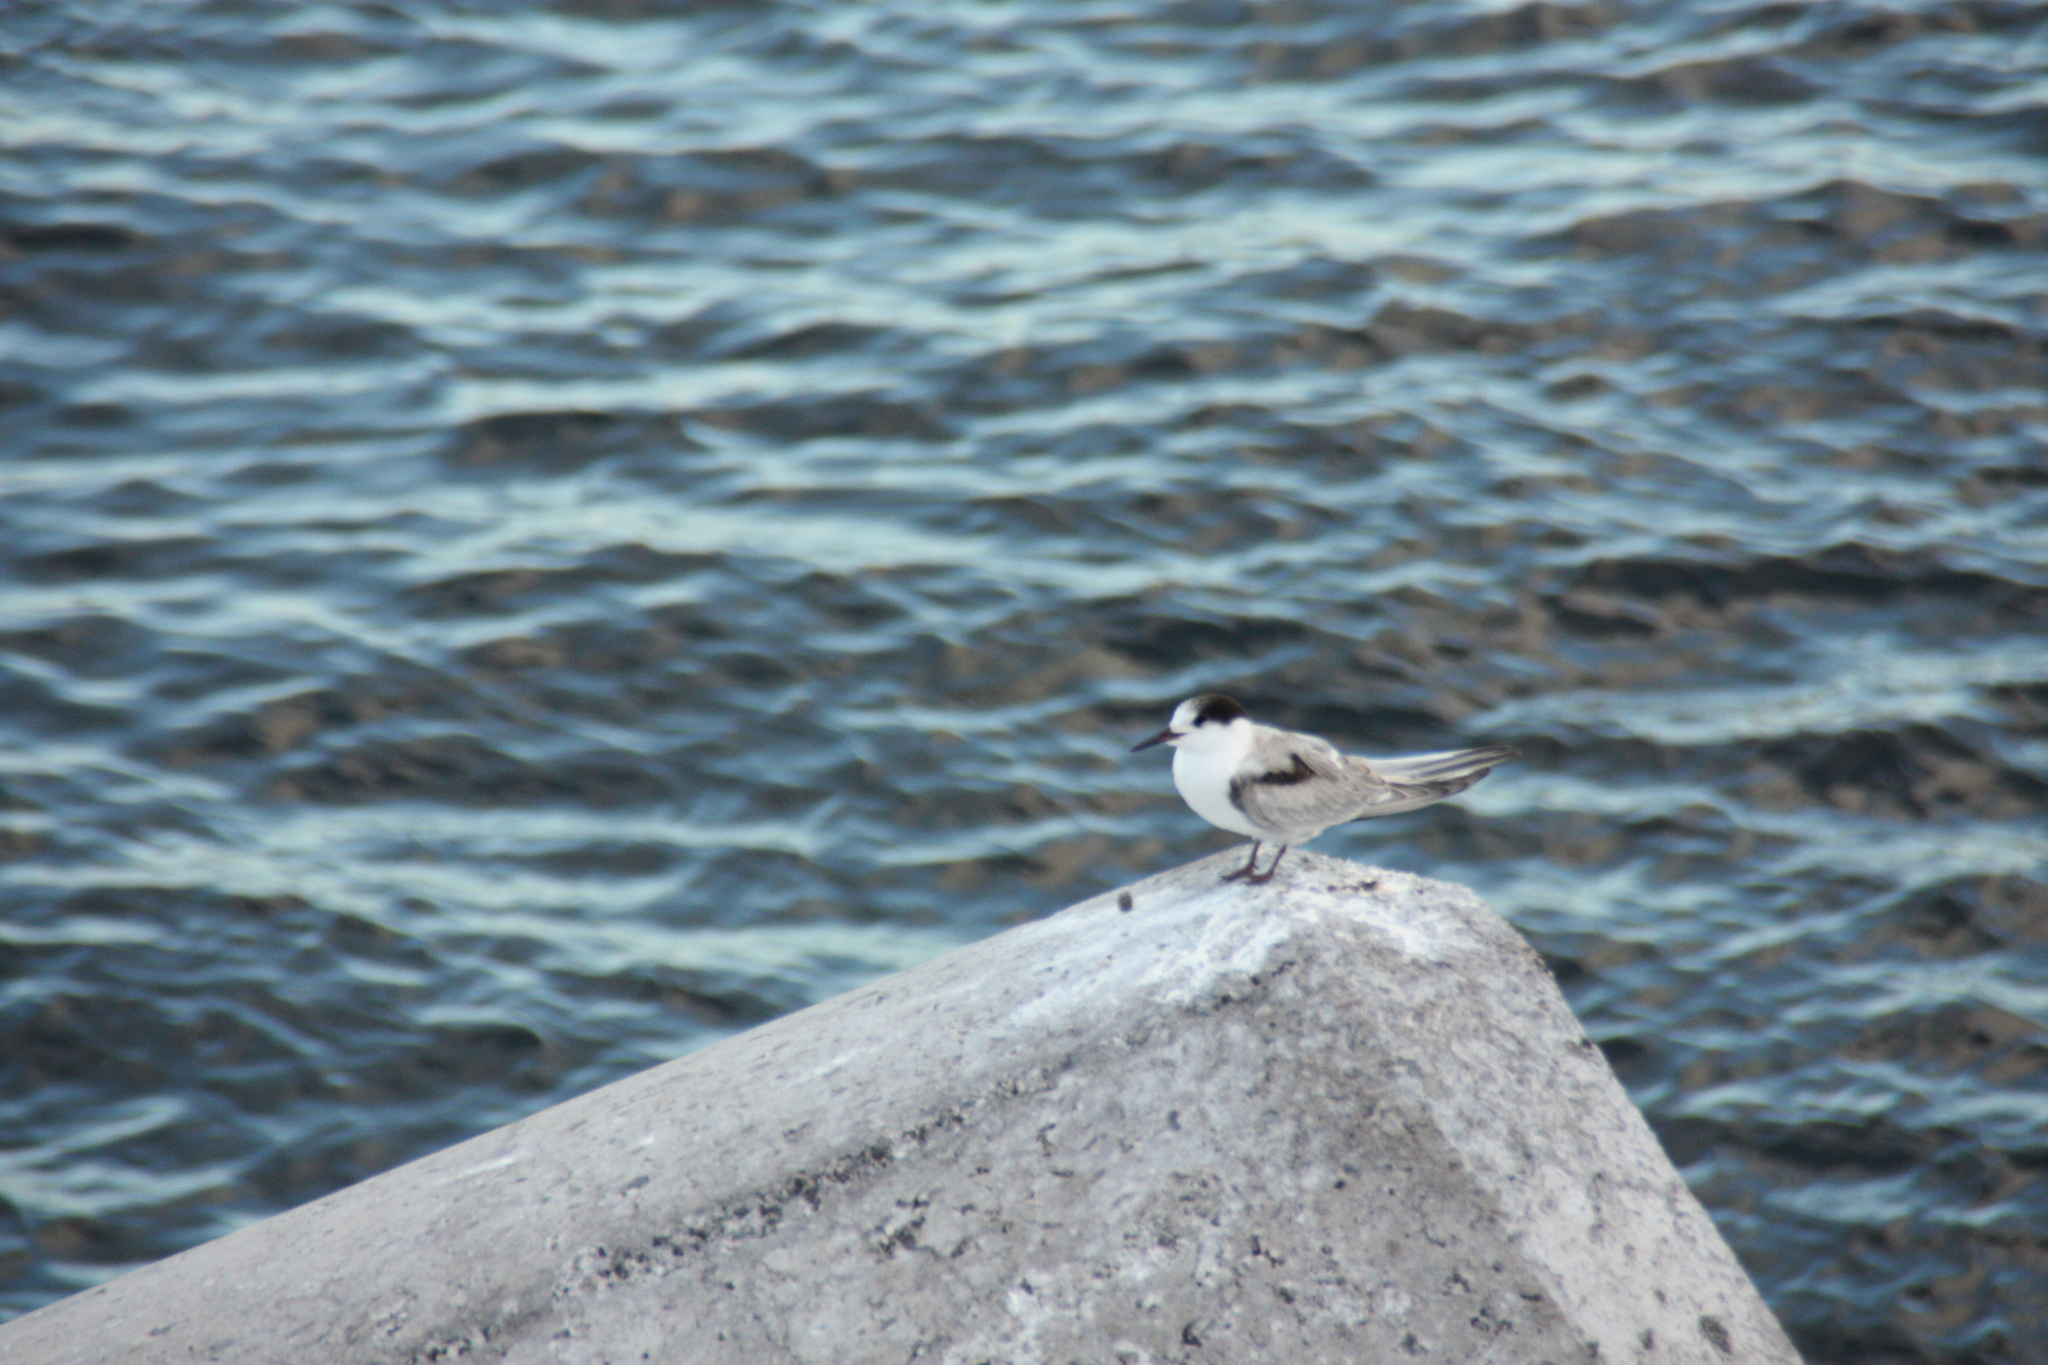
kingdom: Animalia
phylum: Chordata
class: Aves
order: Charadriiformes
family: Laridae
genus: Sterna
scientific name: Sterna hirundo
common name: Common tern
